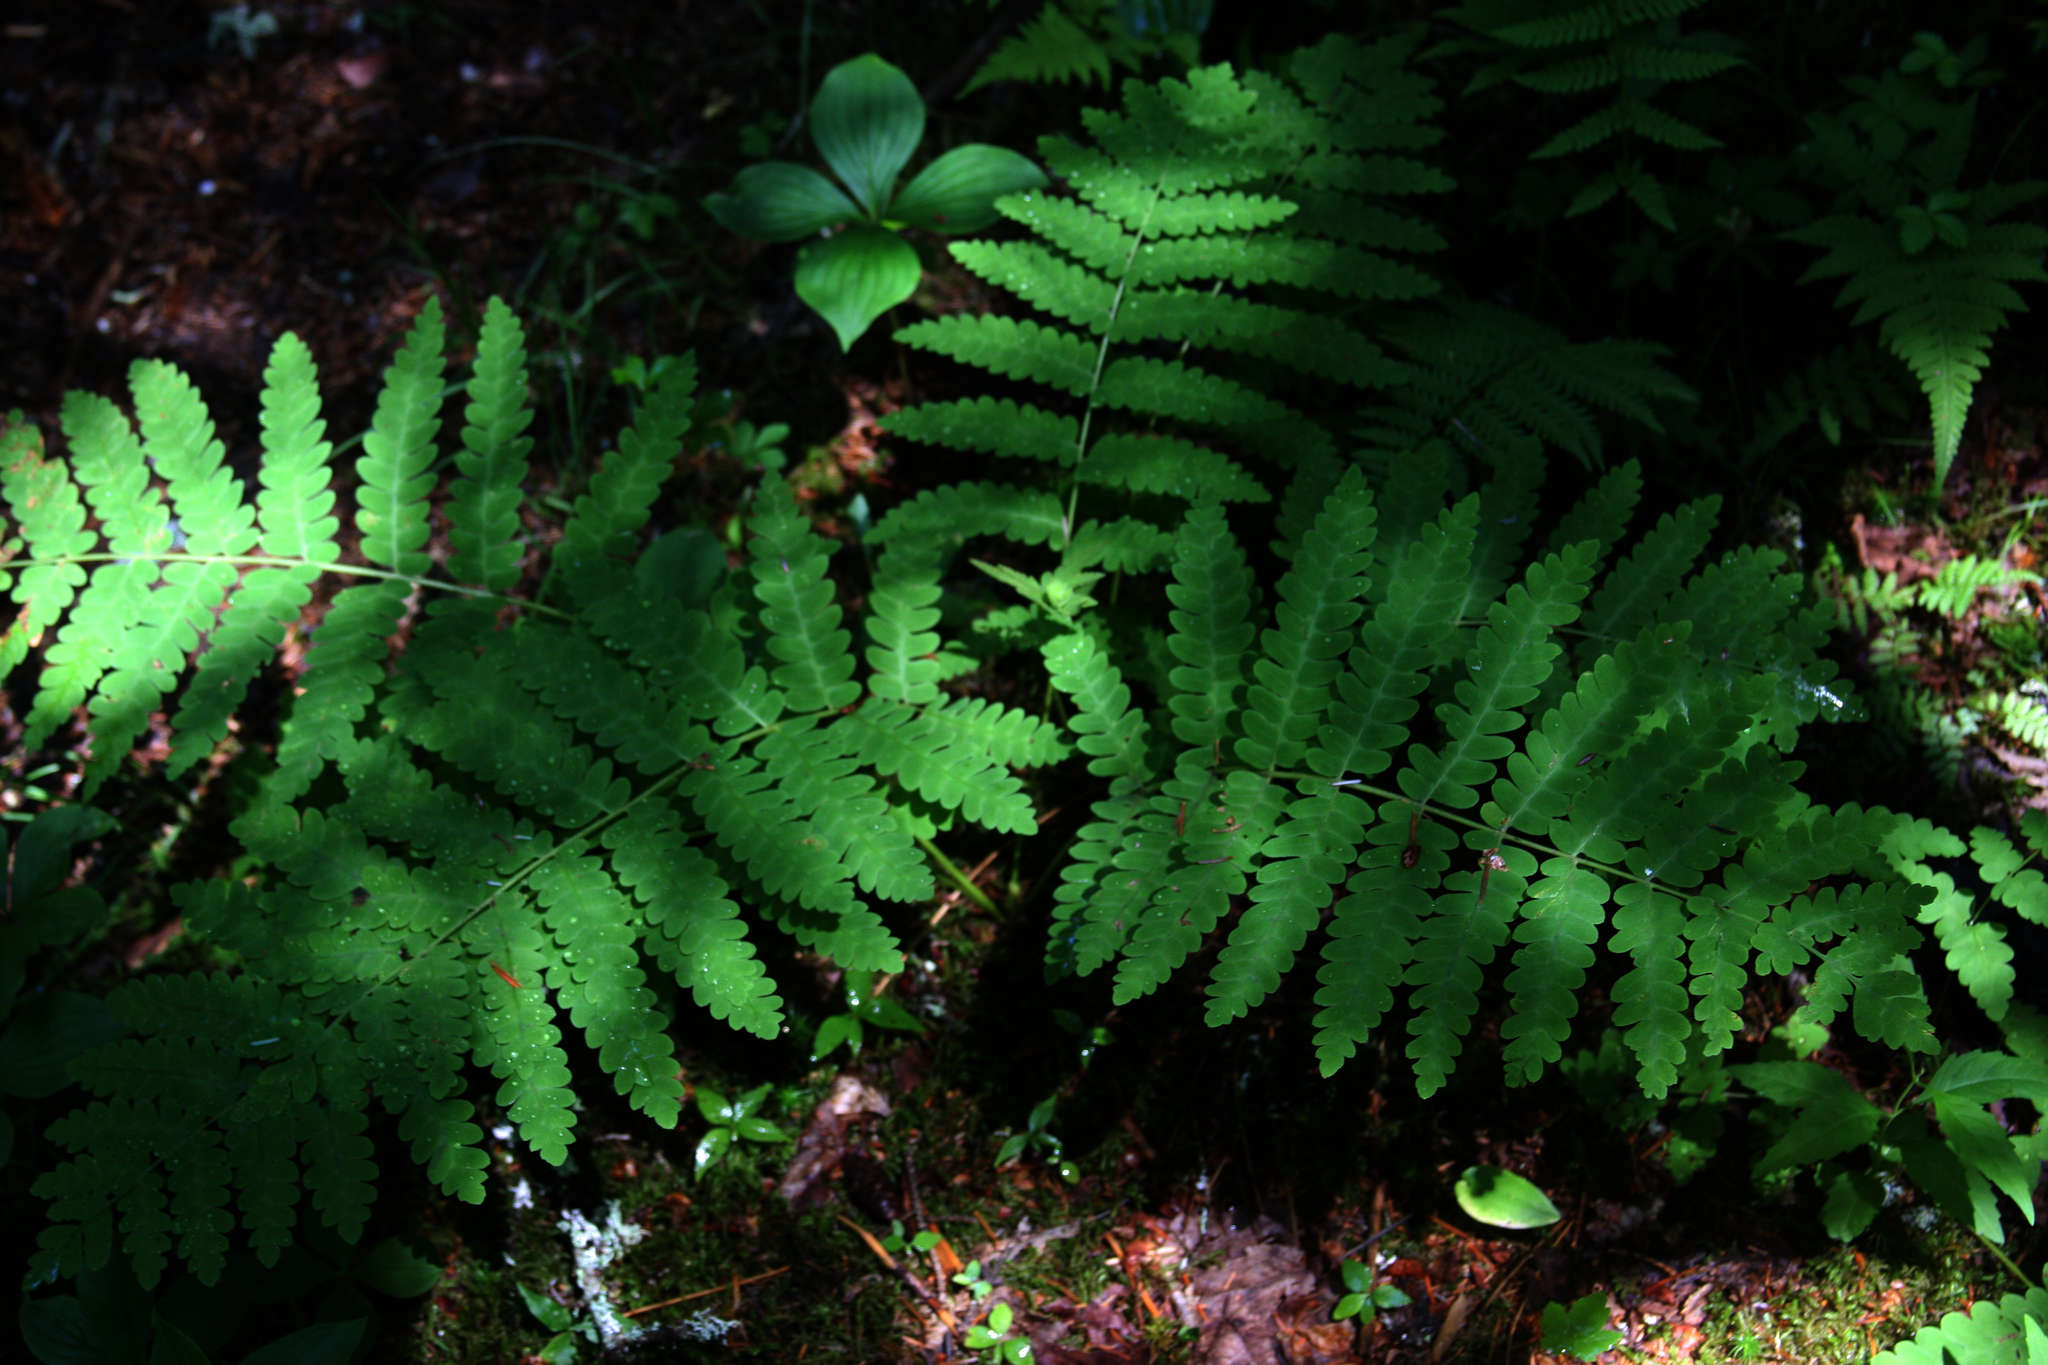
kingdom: Plantae
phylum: Tracheophyta
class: Polypodiopsida
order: Osmundales
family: Osmundaceae
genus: Claytosmunda
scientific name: Claytosmunda claytoniana
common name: Clayton's fern
